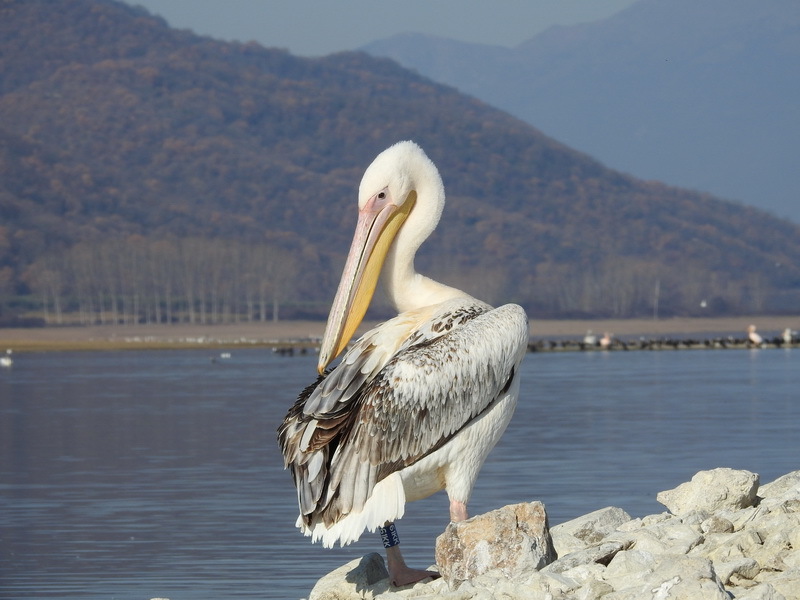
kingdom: Animalia
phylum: Chordata
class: Aves
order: Pelecaniformes
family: Pelecanidae
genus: Pelecanus
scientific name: Pelecanus onocrotalus
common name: Great white pelican
